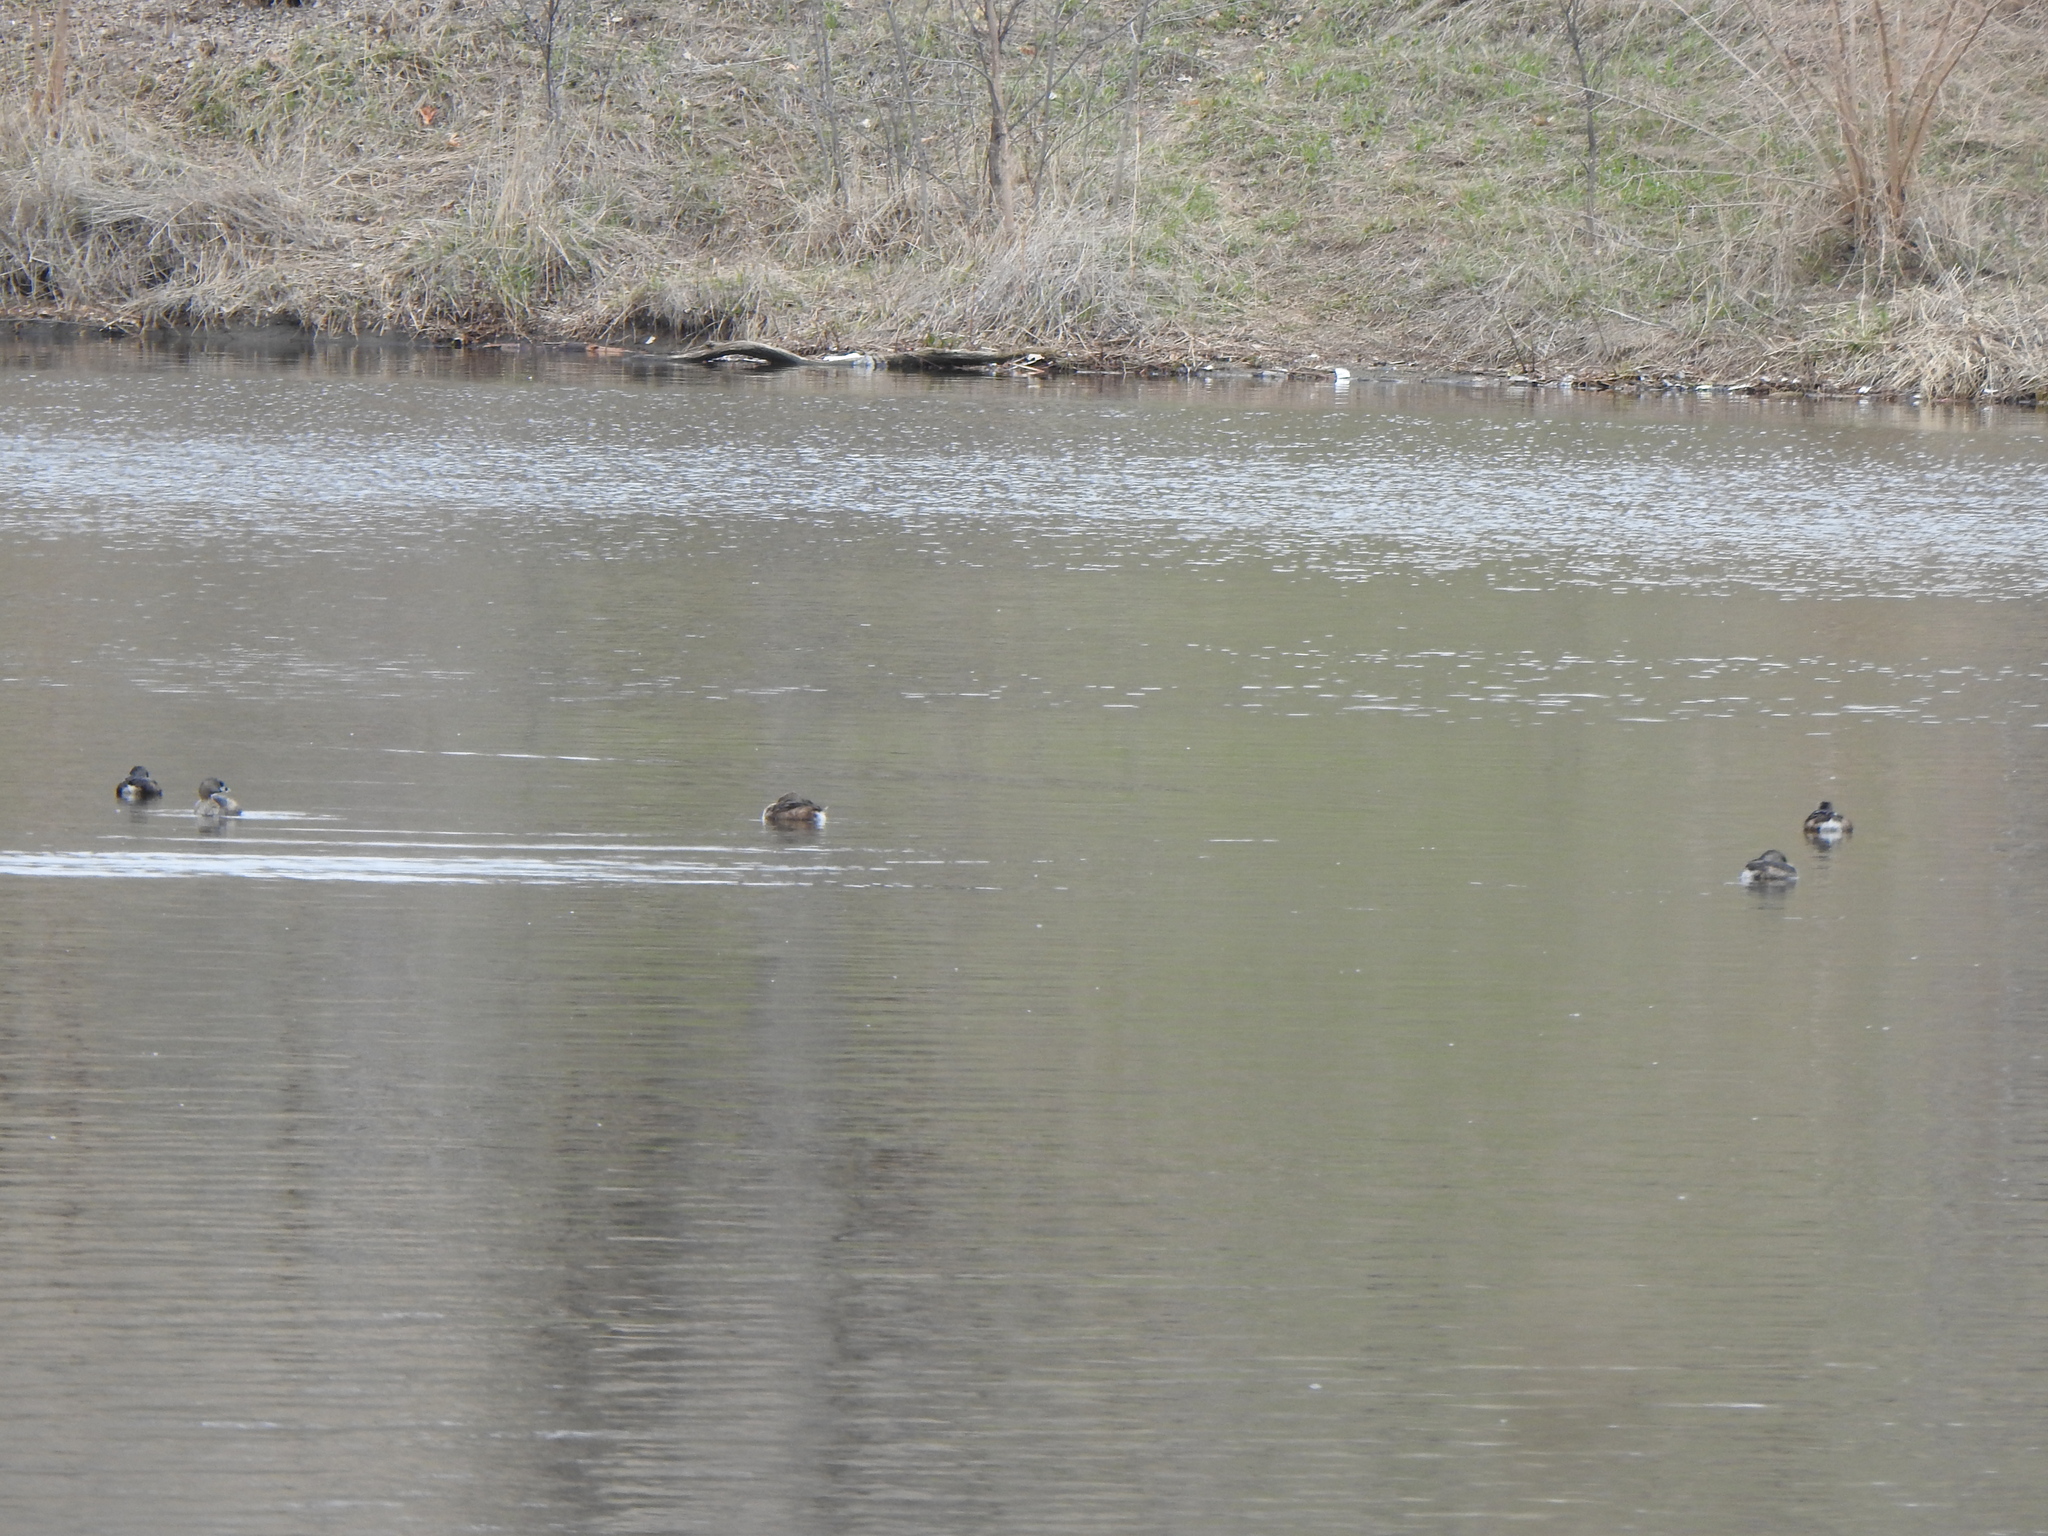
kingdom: Animalia
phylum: Chordata
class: Aves
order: Podicipediformes
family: Podicipedidae
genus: Podilymbus
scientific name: Podilymbus podiceps
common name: Pied-billed grebe
